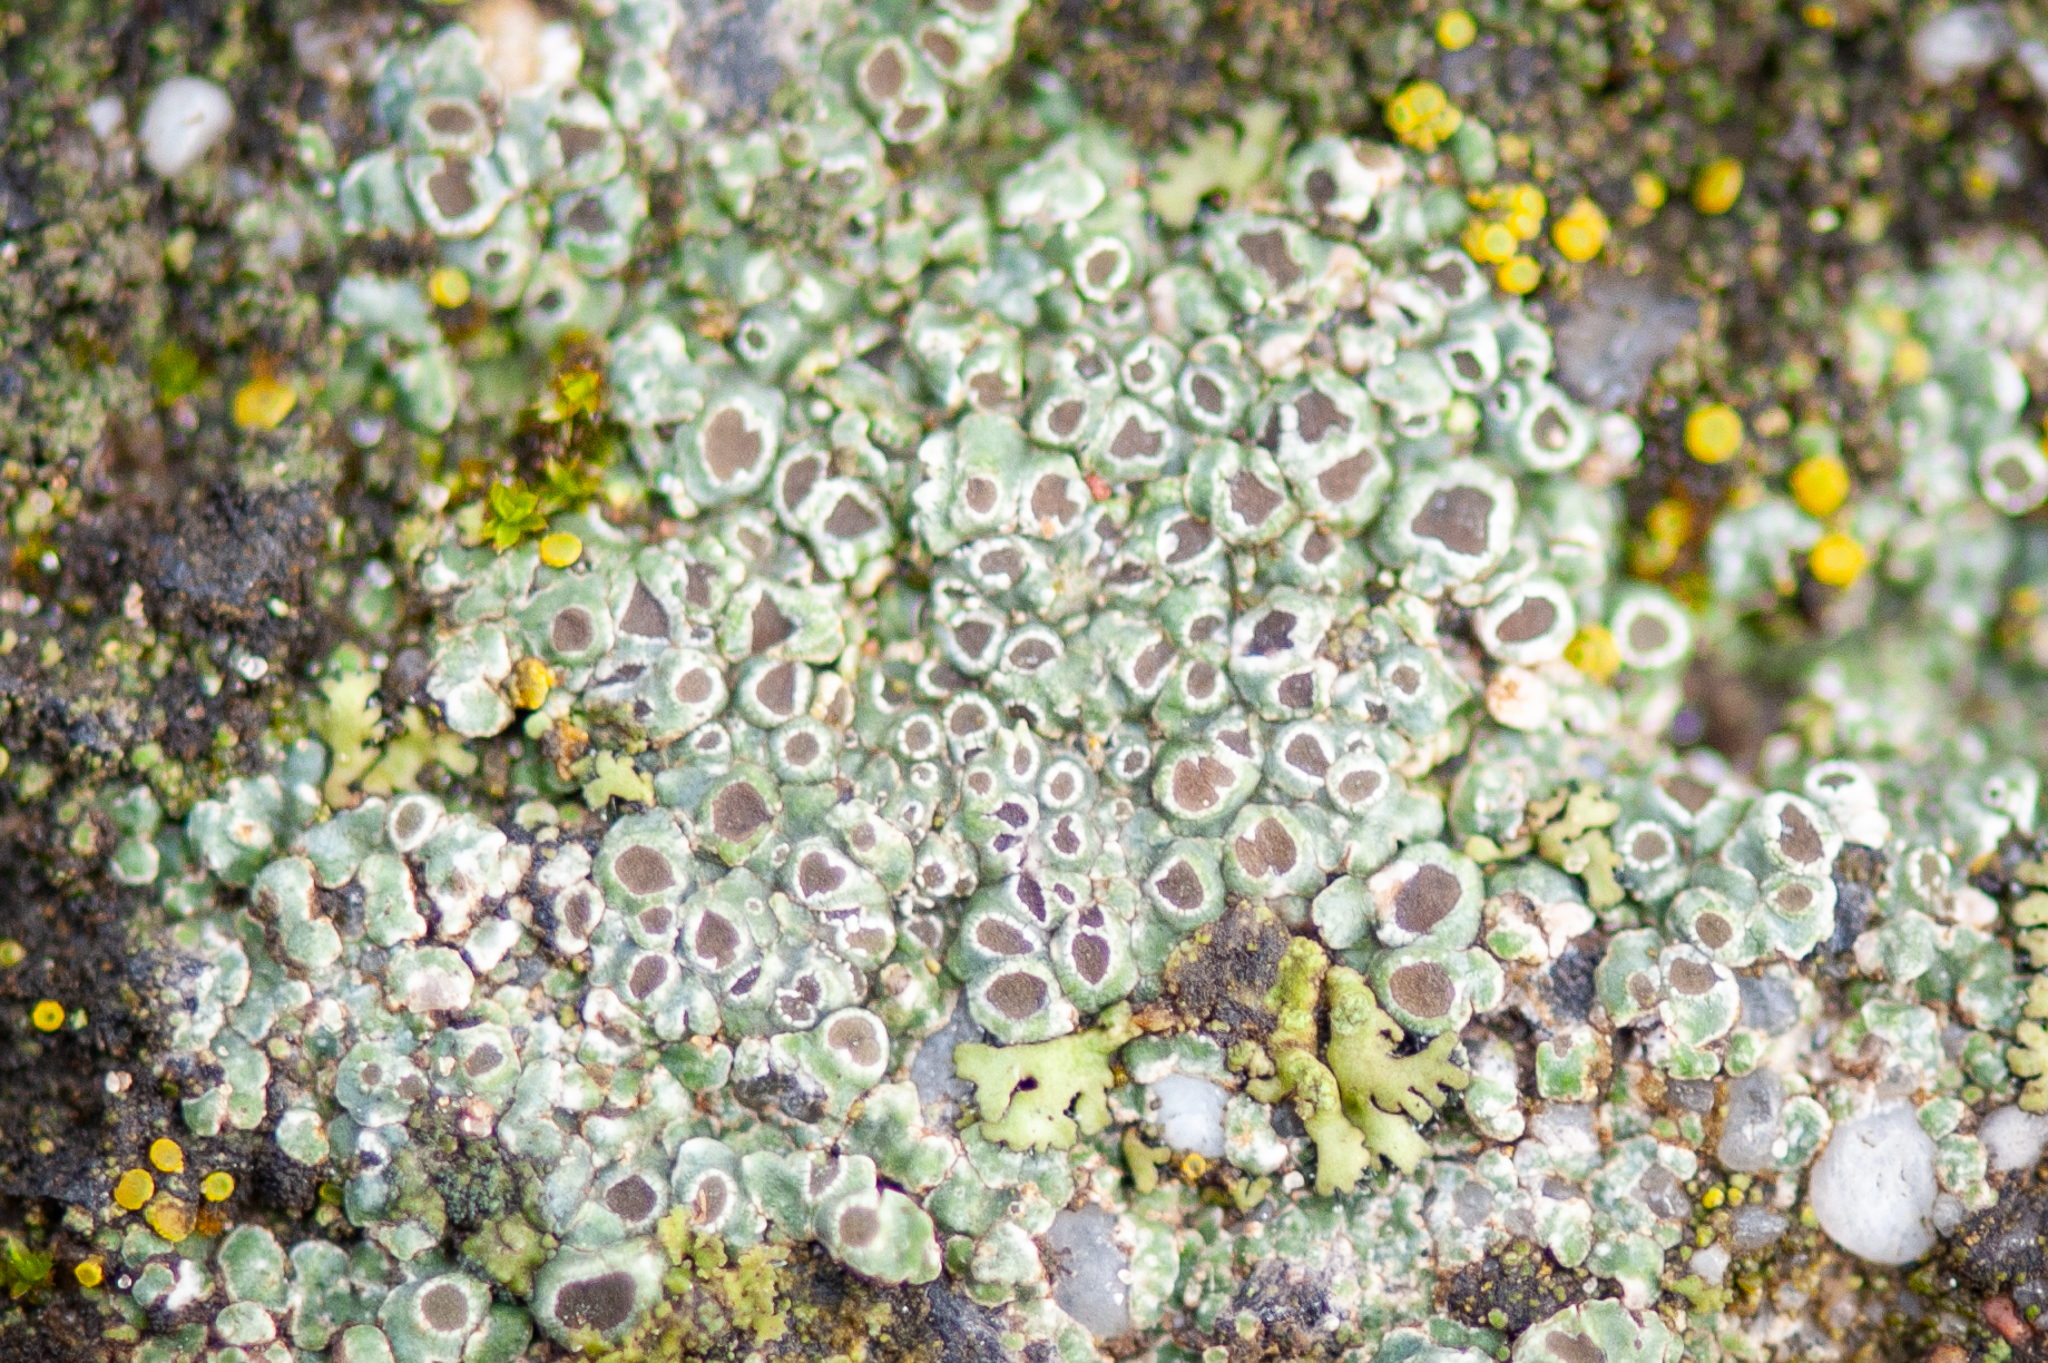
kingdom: Fungi
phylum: Ascomycota
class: Lecanoromycetes
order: Pertusariales
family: Megasporaceae
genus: Circinaria
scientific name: Circinaria contorta
